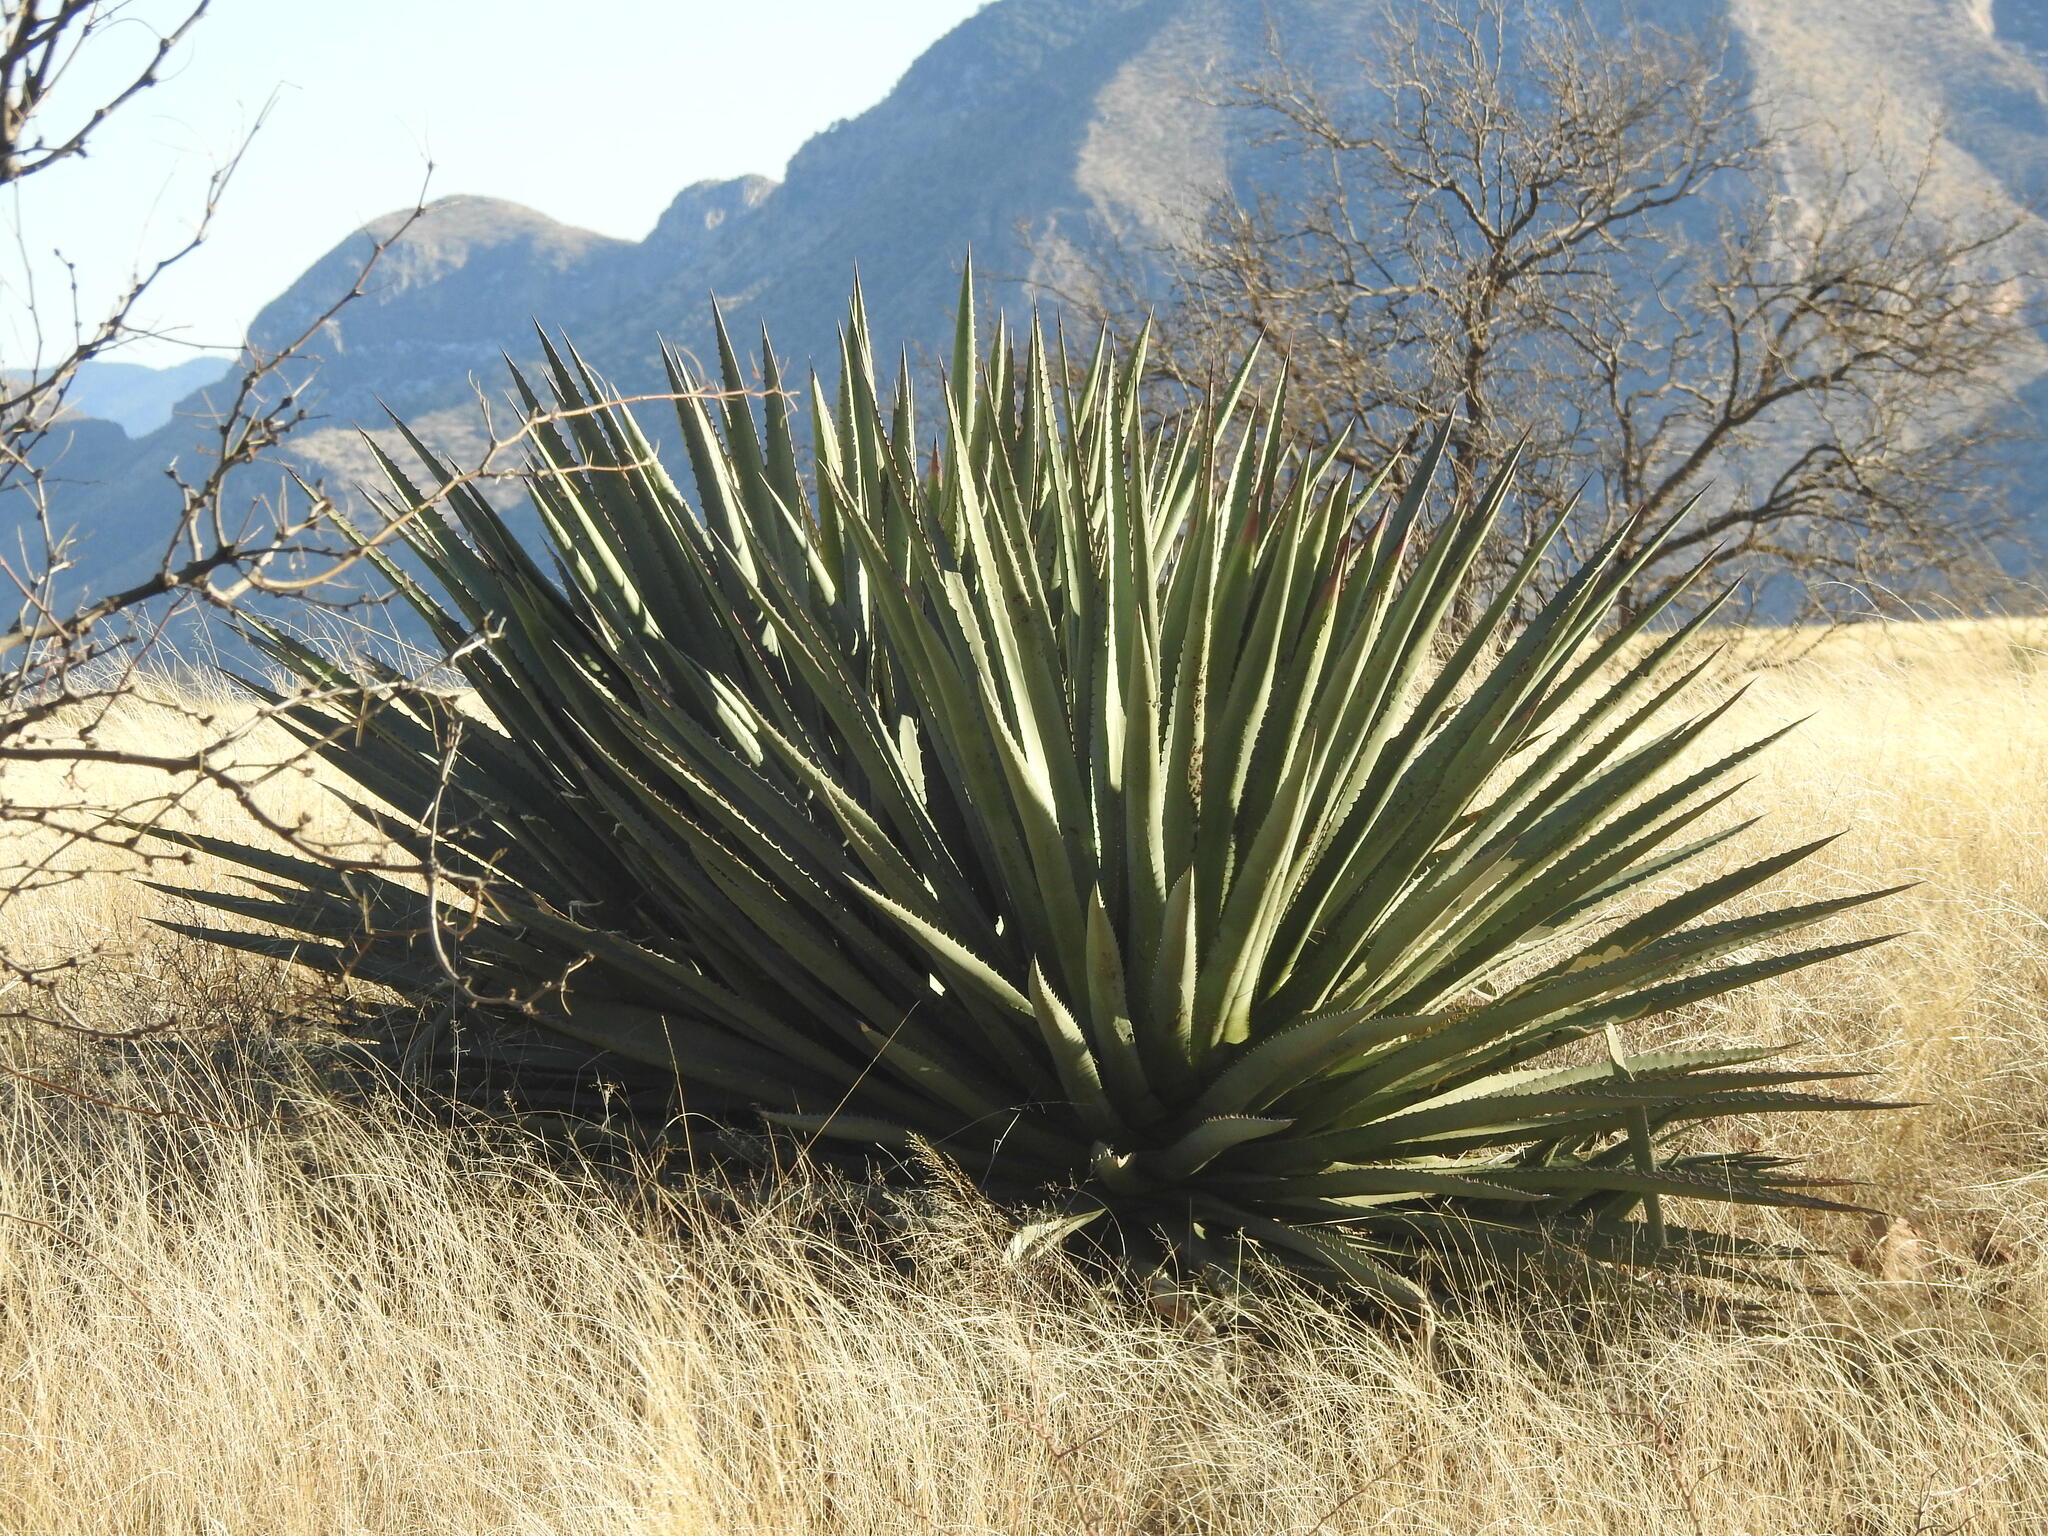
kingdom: Plantae
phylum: Tracheophyta
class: Liliopsida
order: Asparagales
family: Asparagaceae
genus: Agave
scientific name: Agave palmeri
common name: Palmer agave
